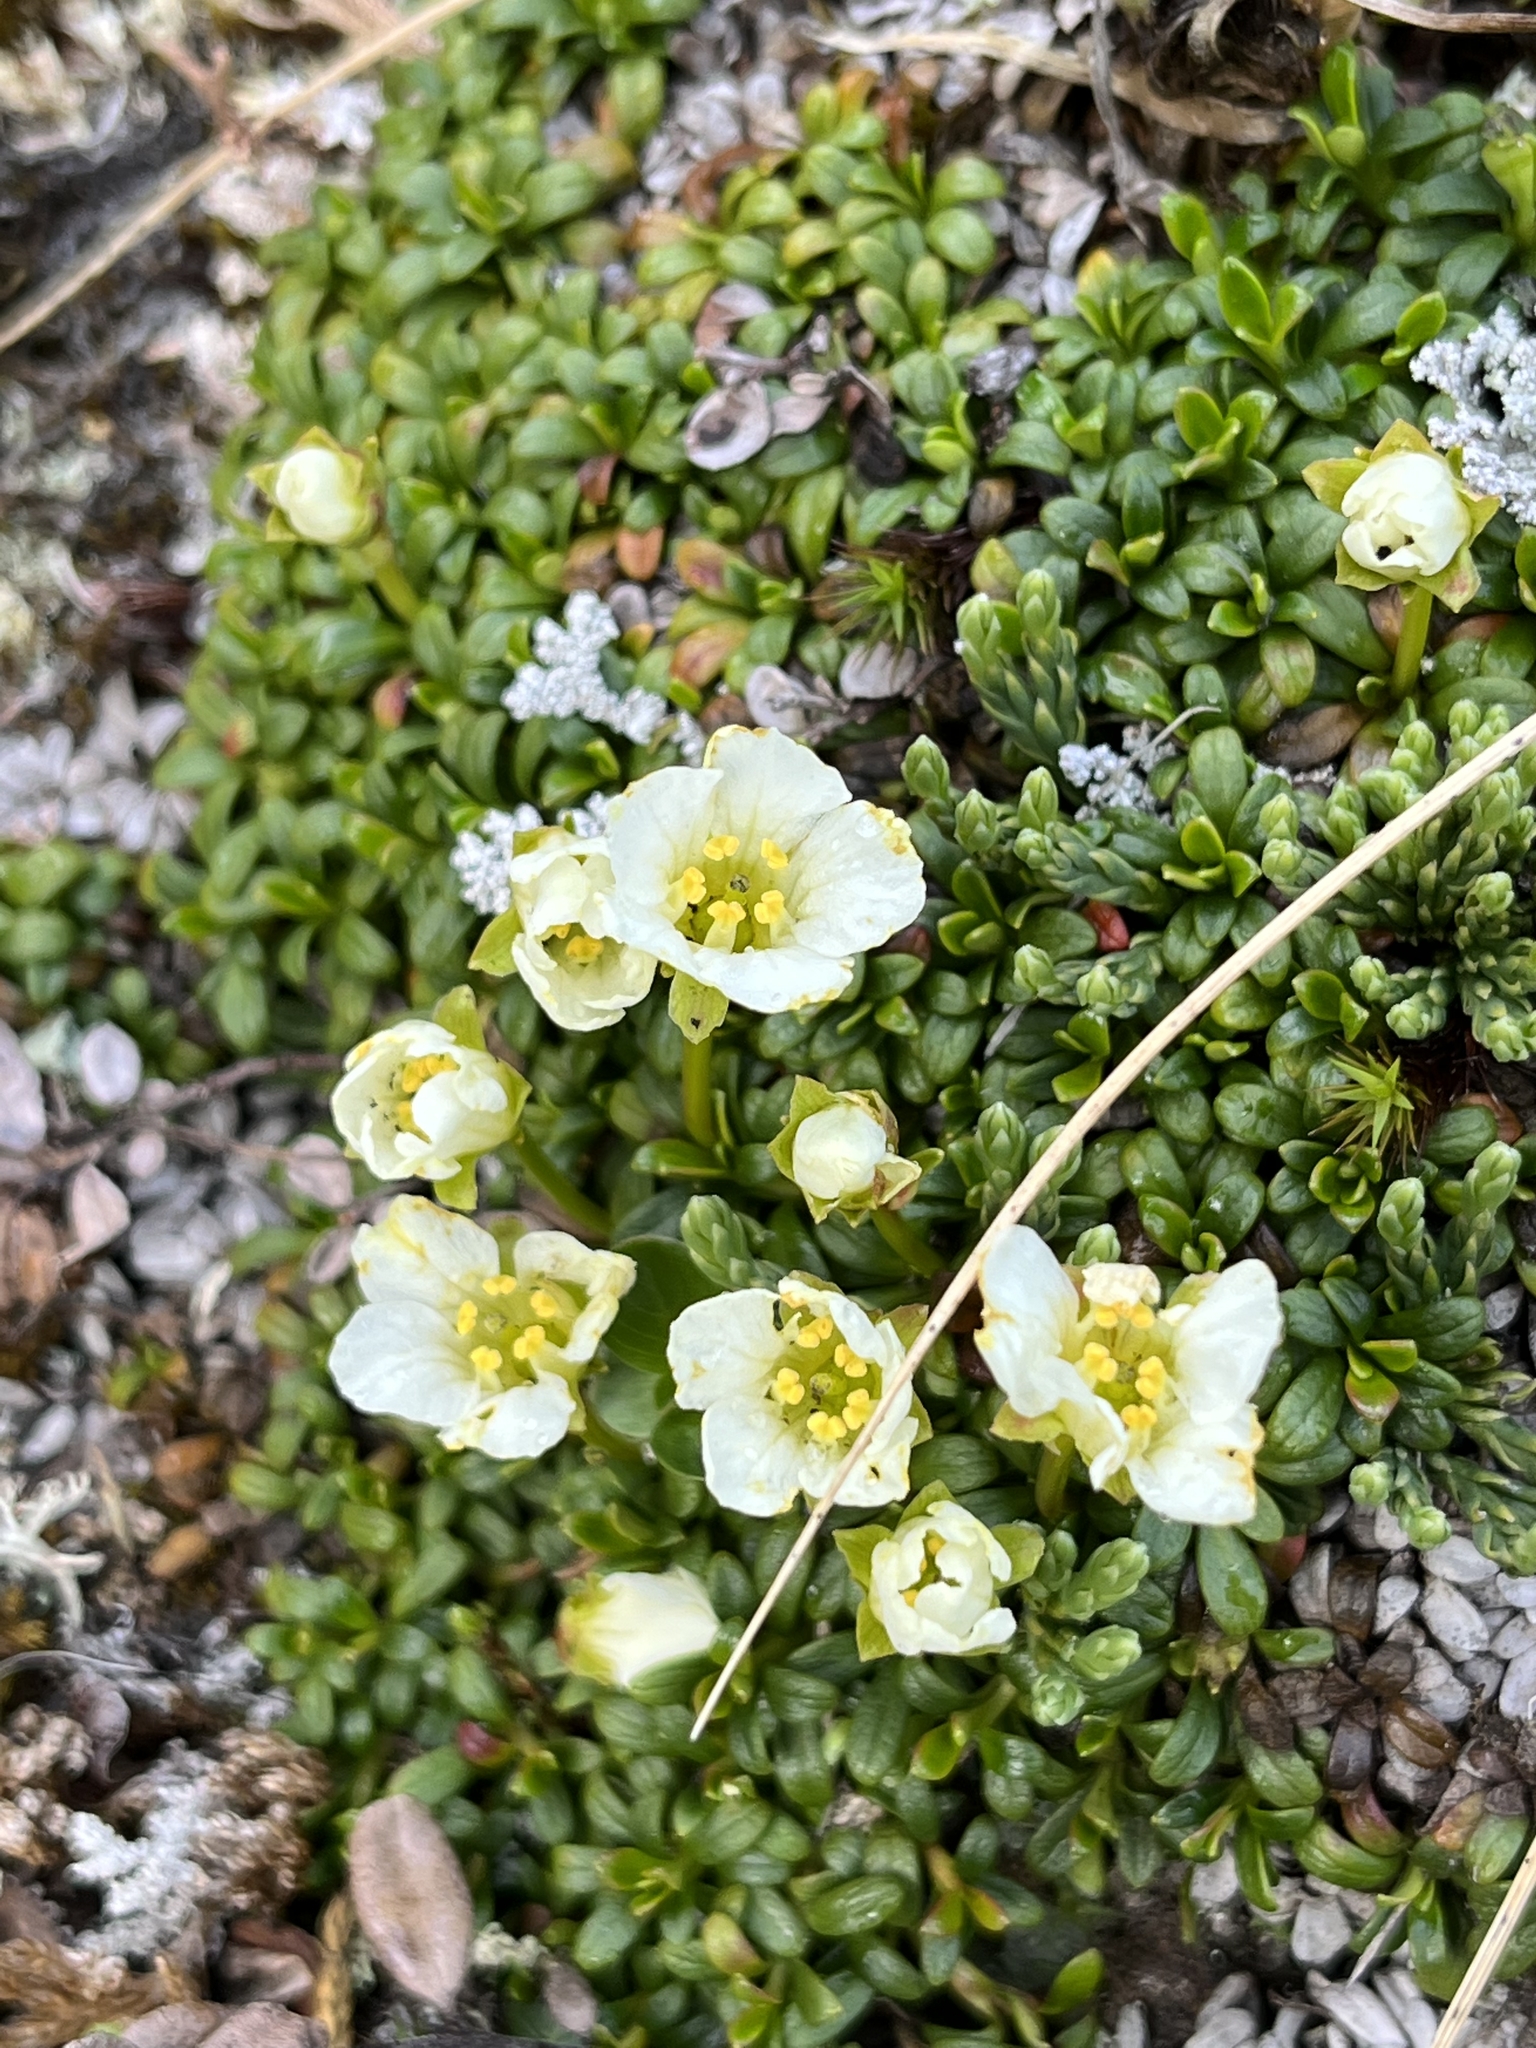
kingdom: Plantae
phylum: Tracheophyta
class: Magnoliopsida
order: Ericales
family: Diapensiaceae
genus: Diapensia
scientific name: Diapensia obovata
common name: Alaska diapensia
